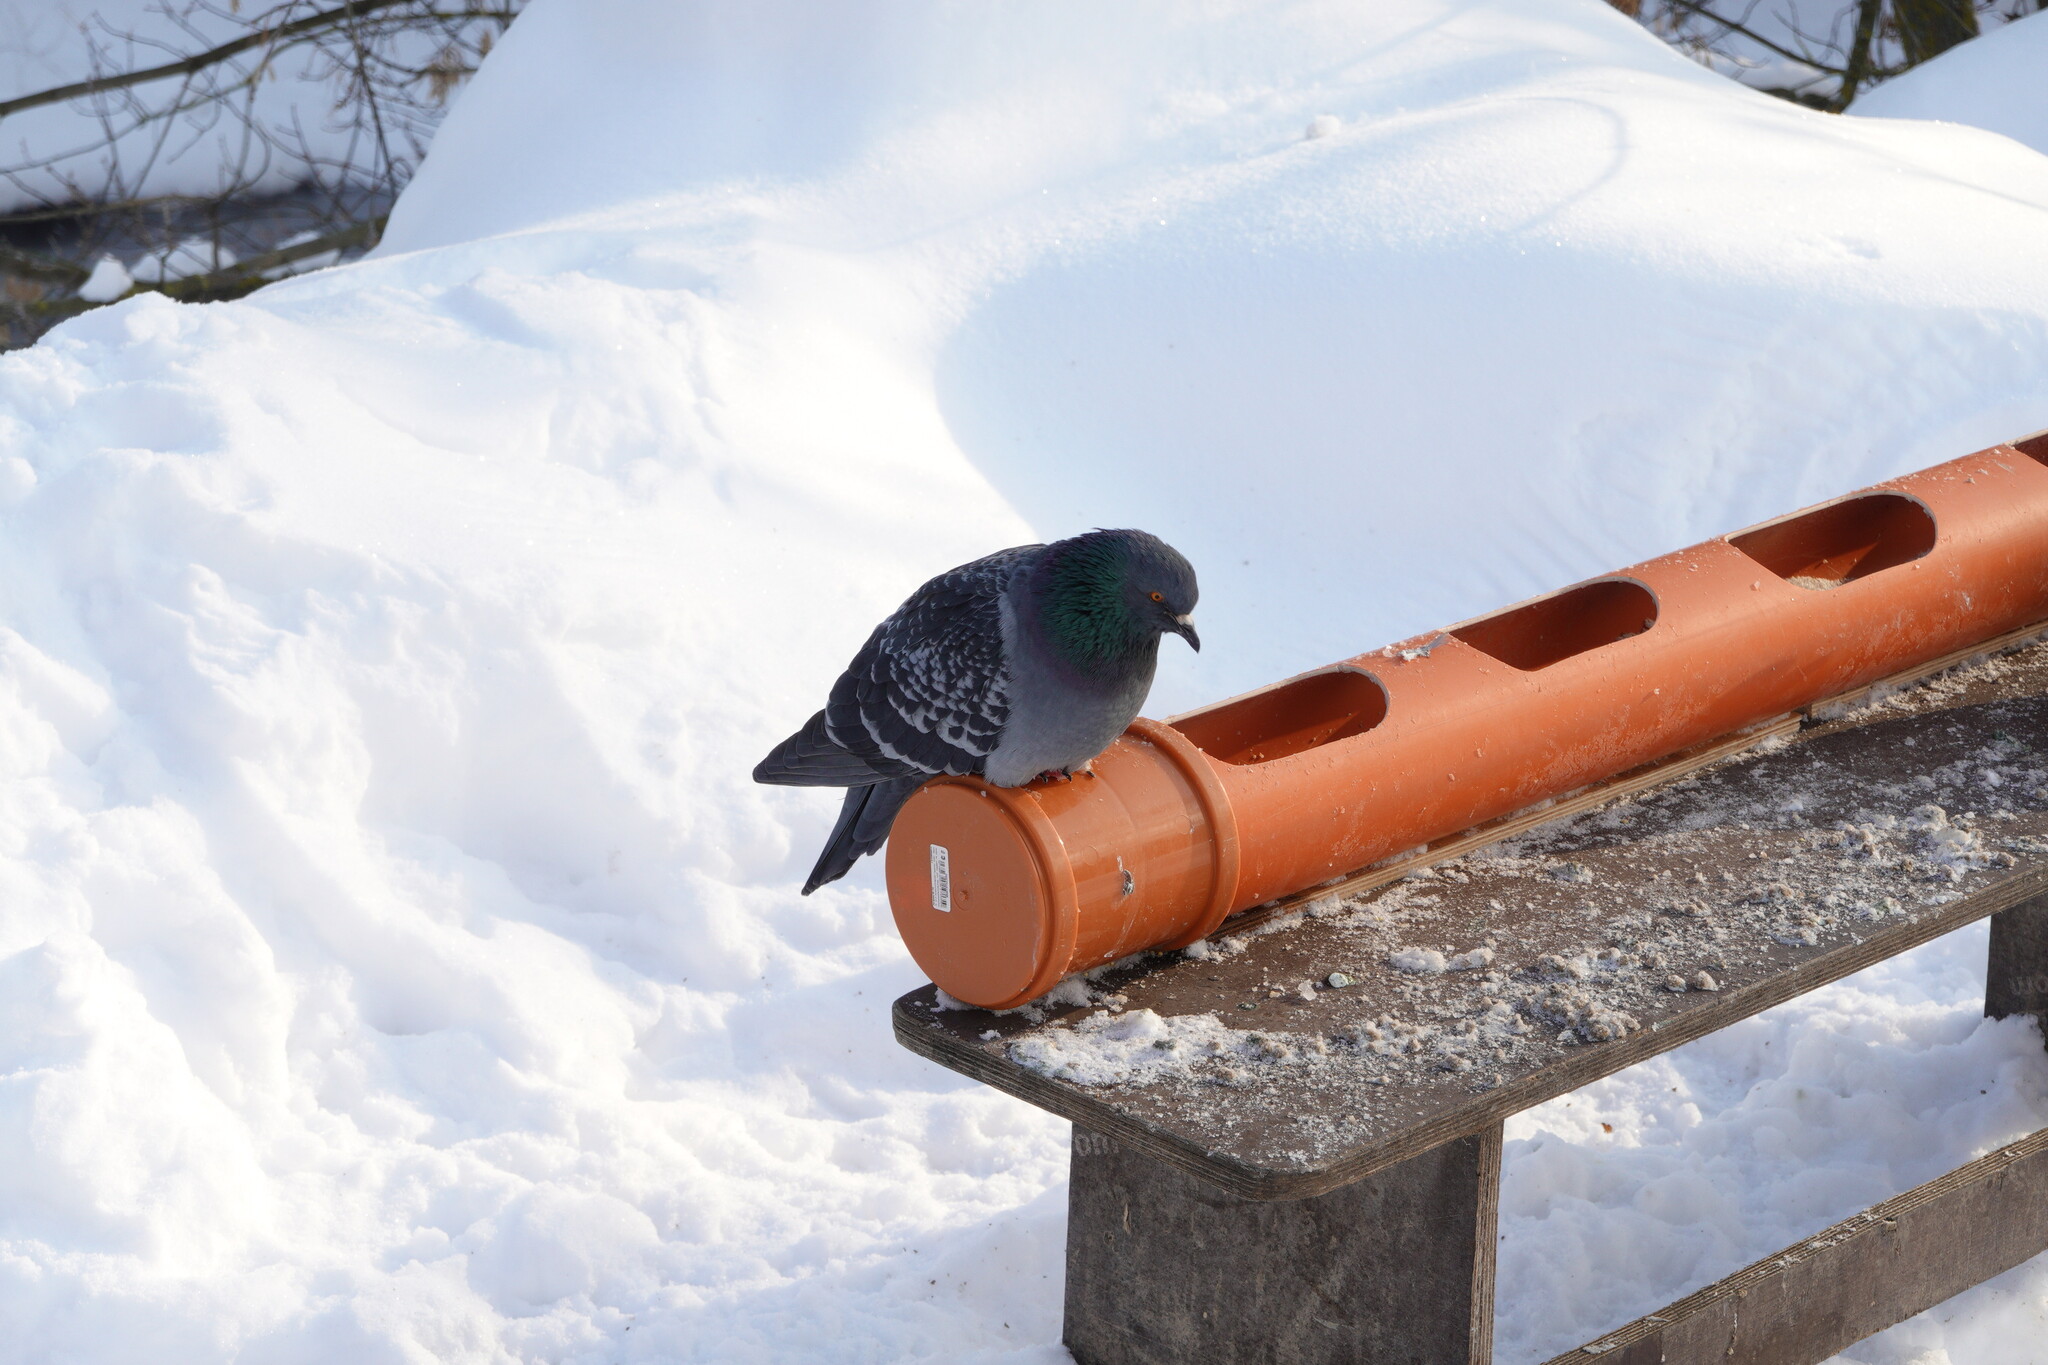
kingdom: Animalia
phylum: Chordata
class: Aves
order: Columbiformes
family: Columbidae
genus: Columba
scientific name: Columba livia
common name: Rock pigeon
